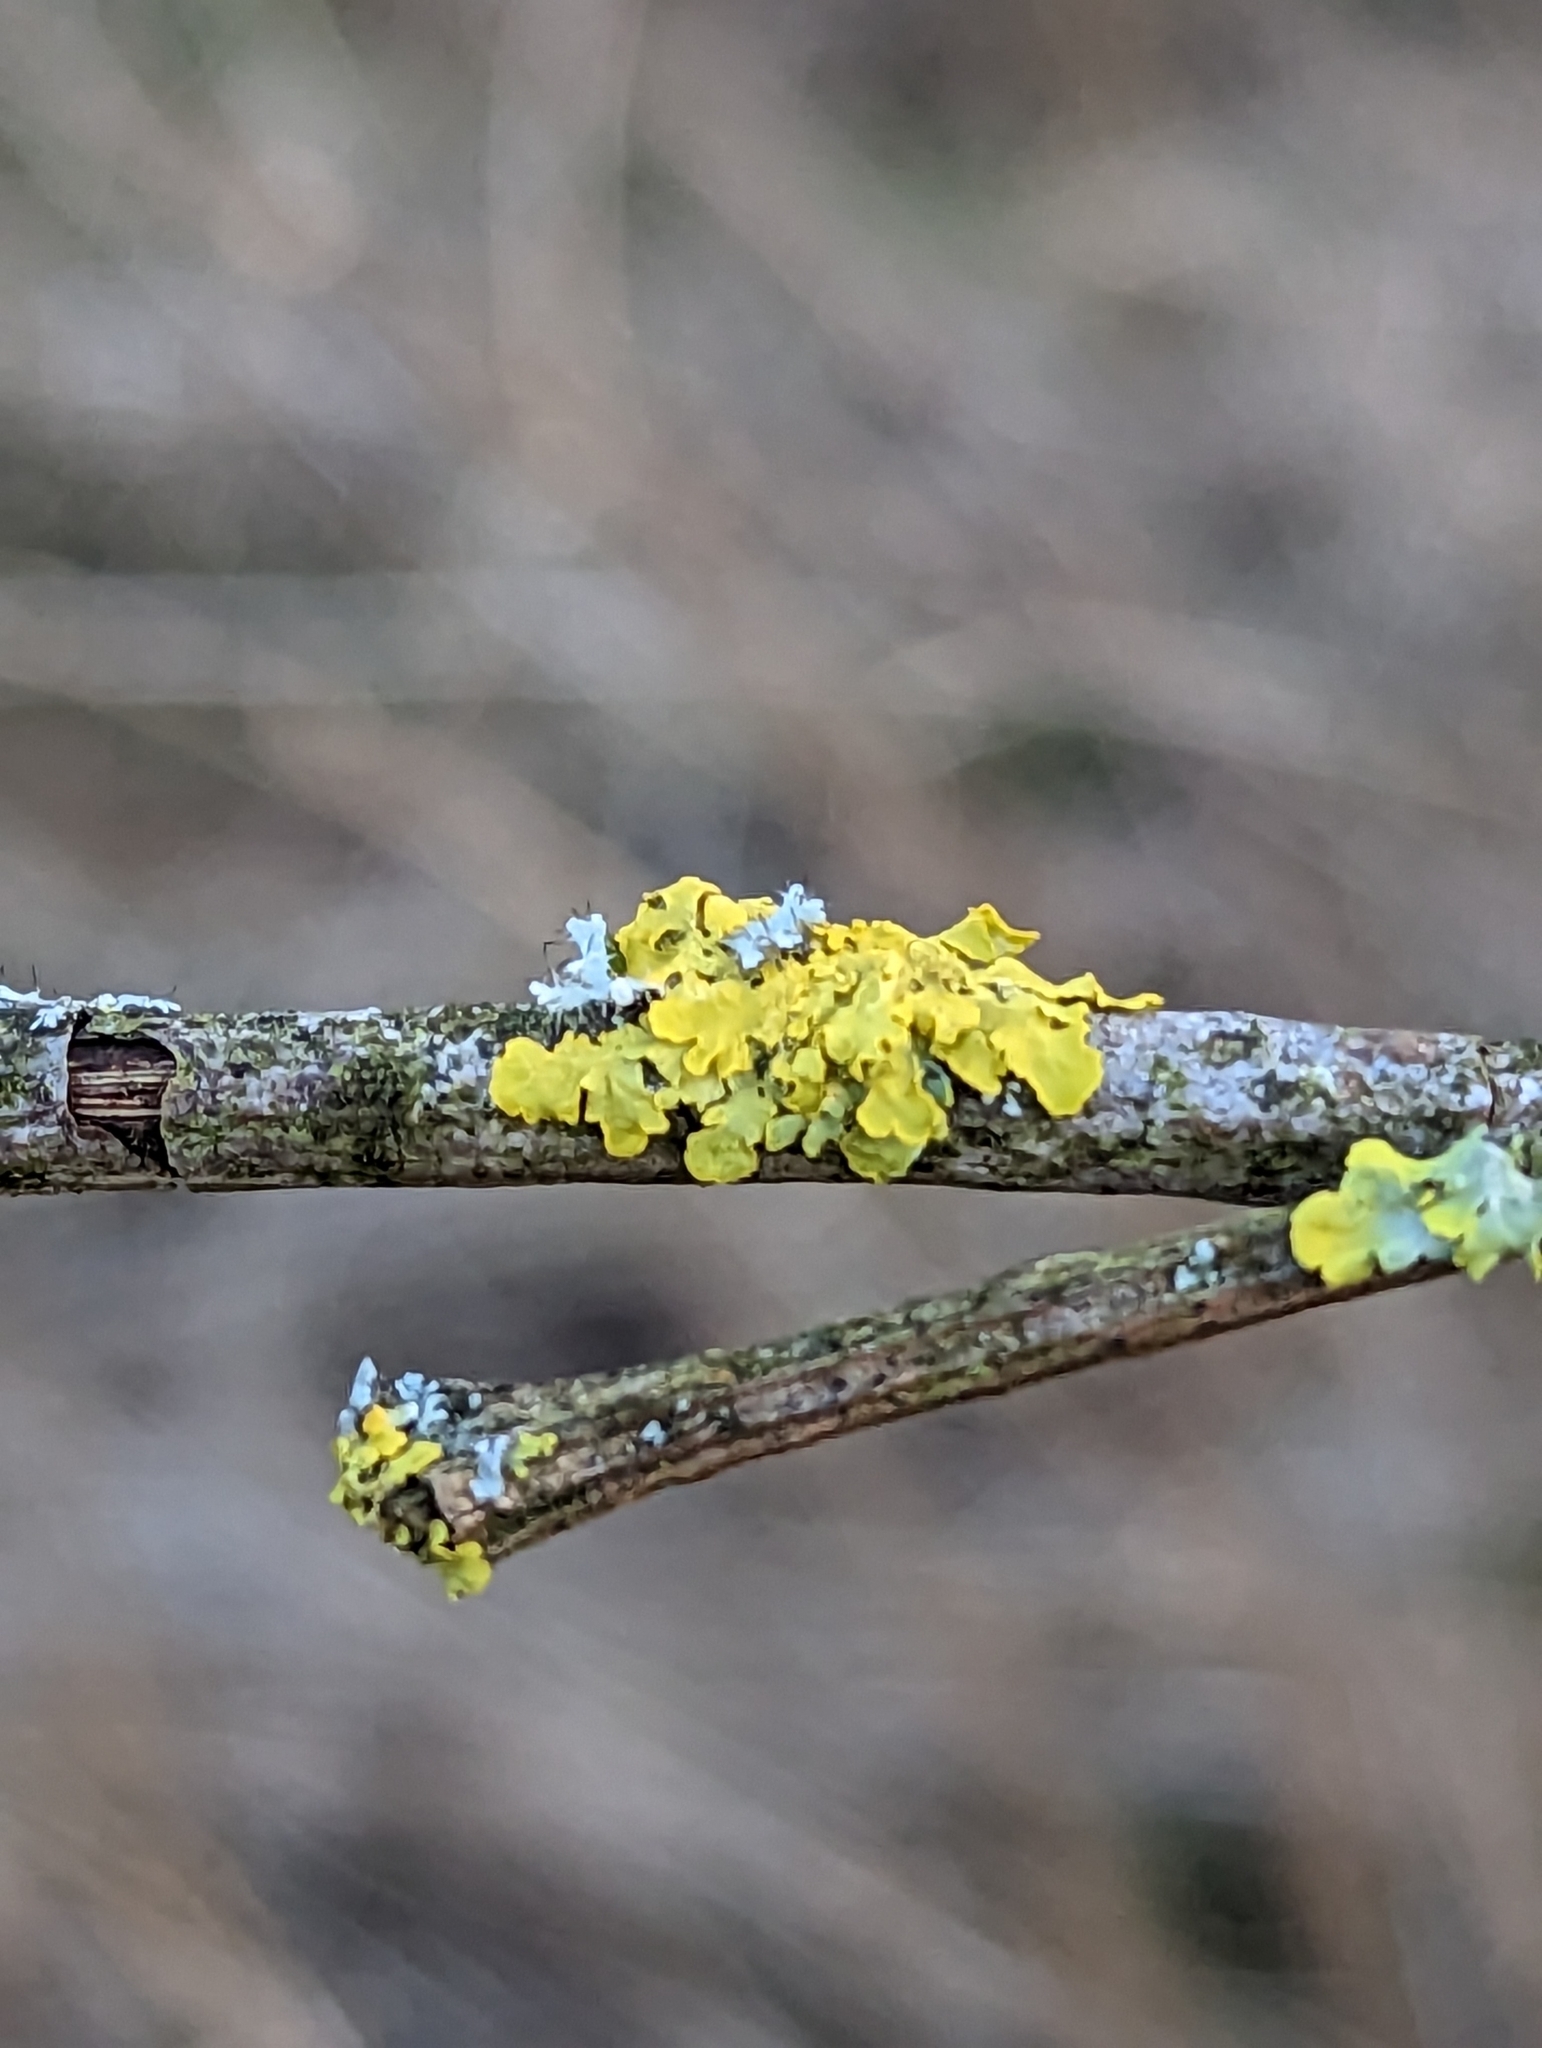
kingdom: Fungi
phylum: Ascomycota
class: Lecanoromycetes
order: Teloschistales
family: Teloschistaceae
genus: Xanthoria
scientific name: Xanthoria parietina
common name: Common orange lichen
